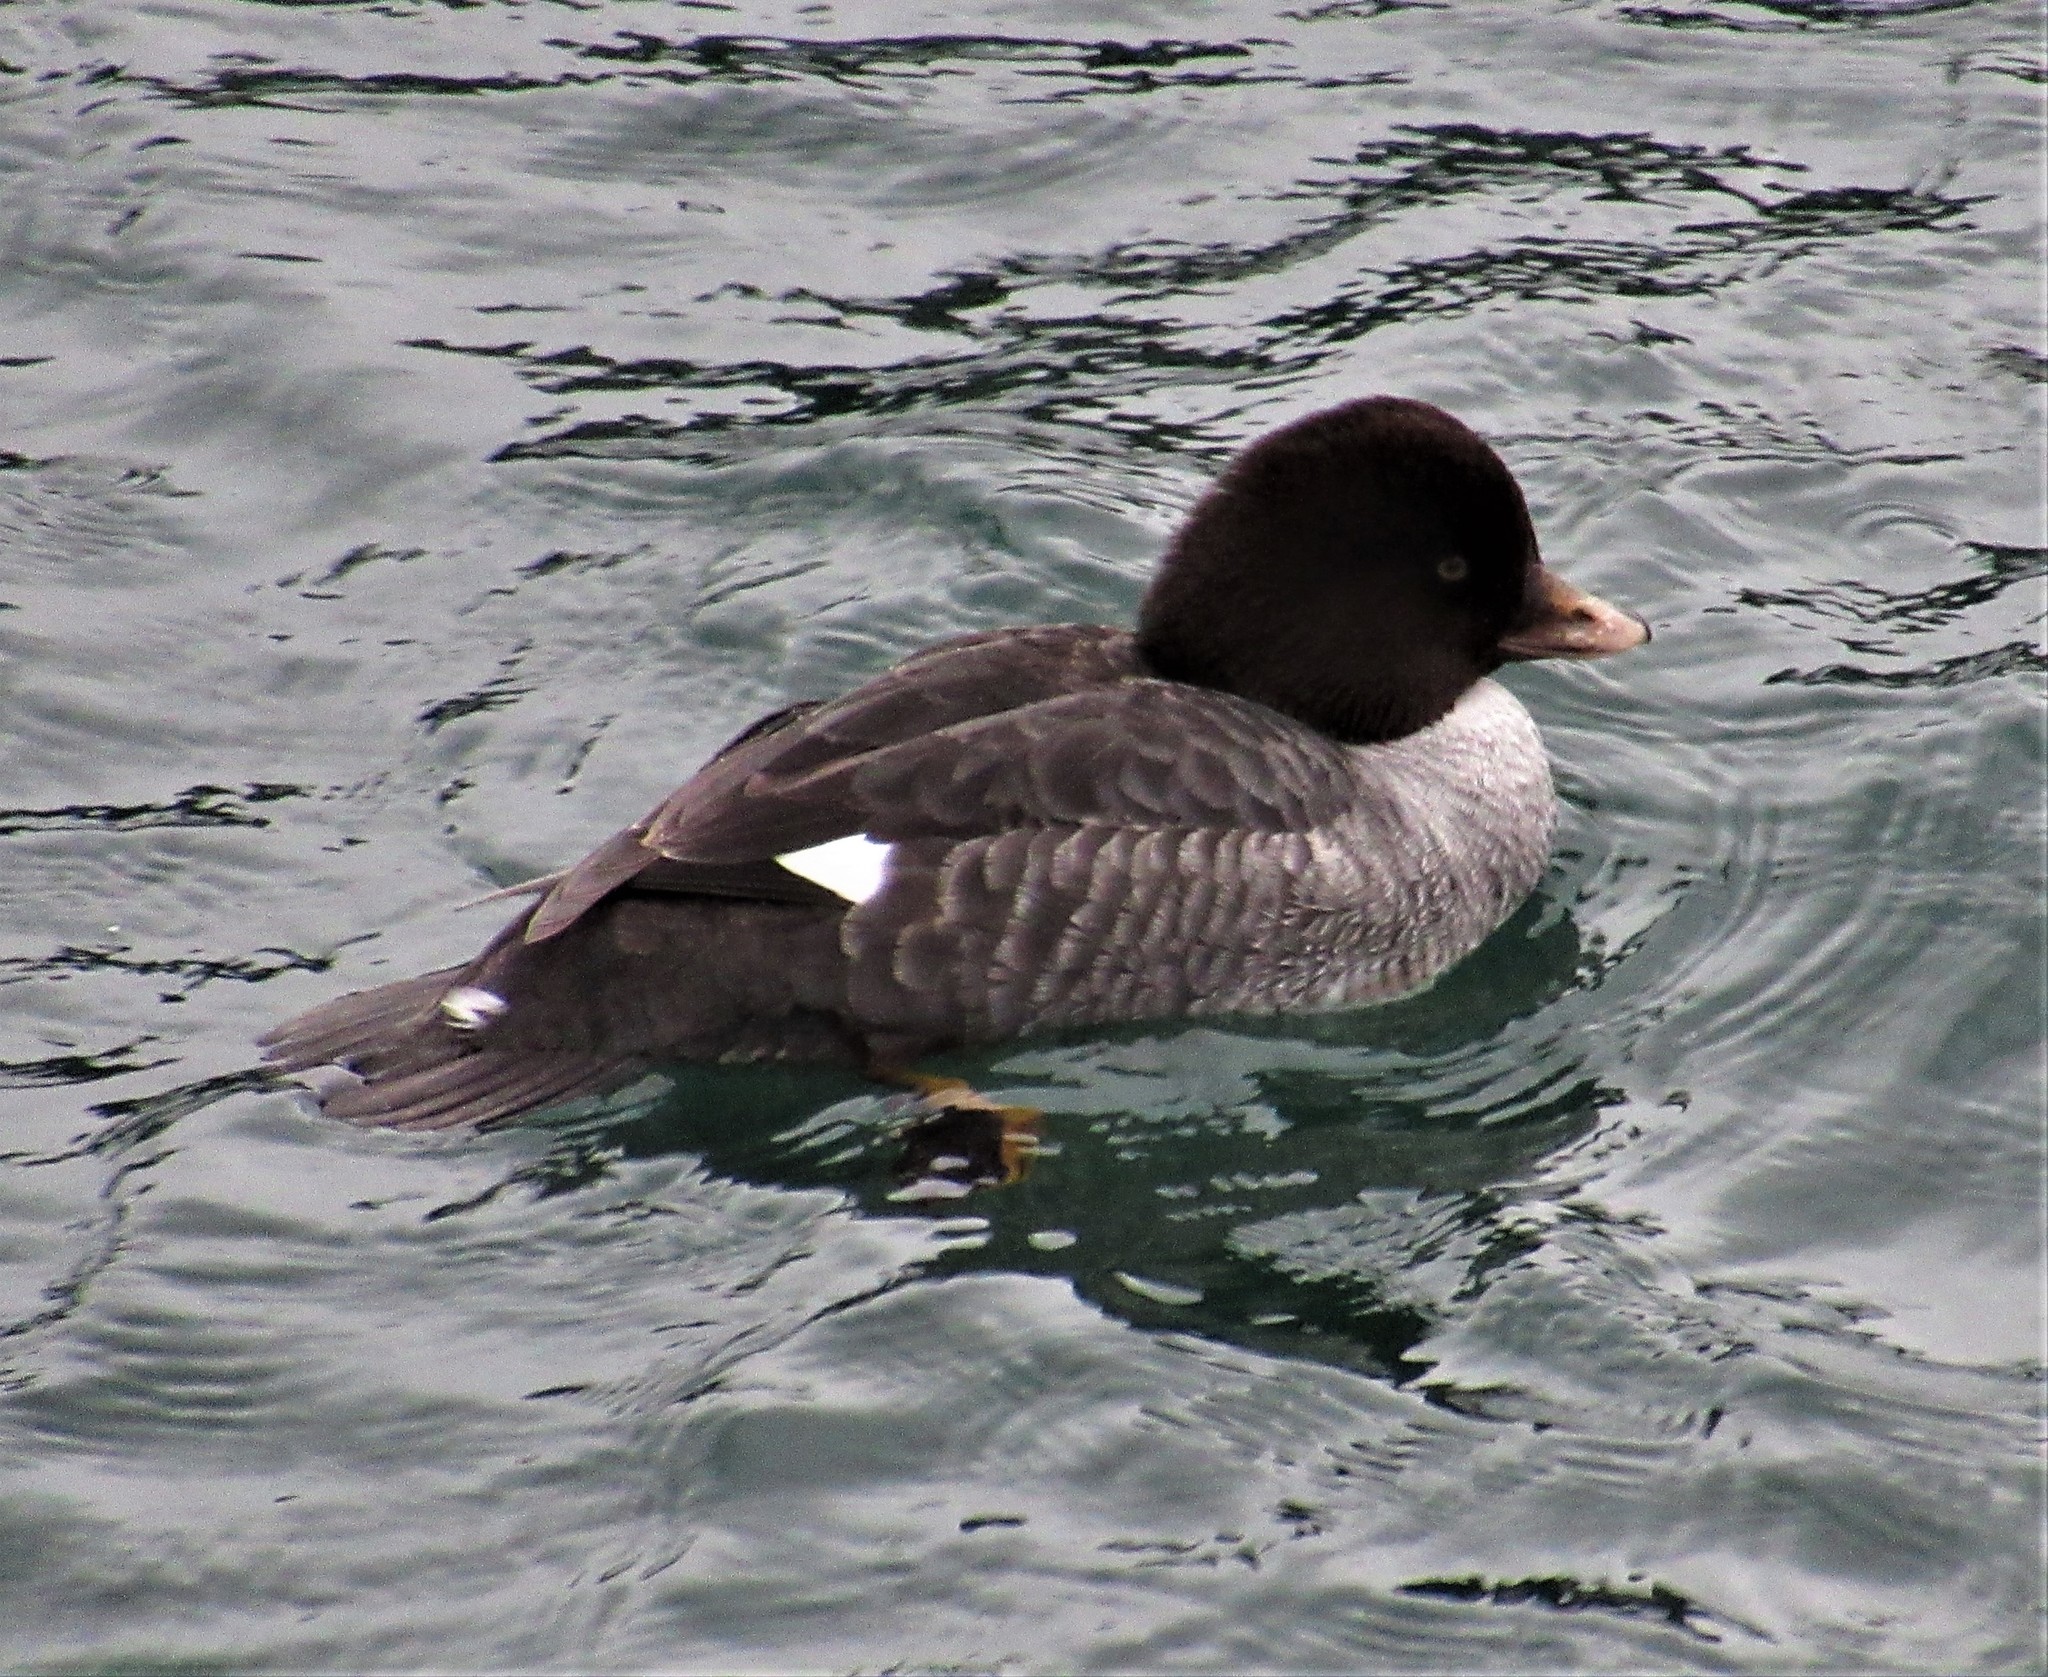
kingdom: Animalia
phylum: Chordata
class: Aves
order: Anseriformes
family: Anatidae
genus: Bucephala
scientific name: Bucephala islandica
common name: Barrow's goldeneye
